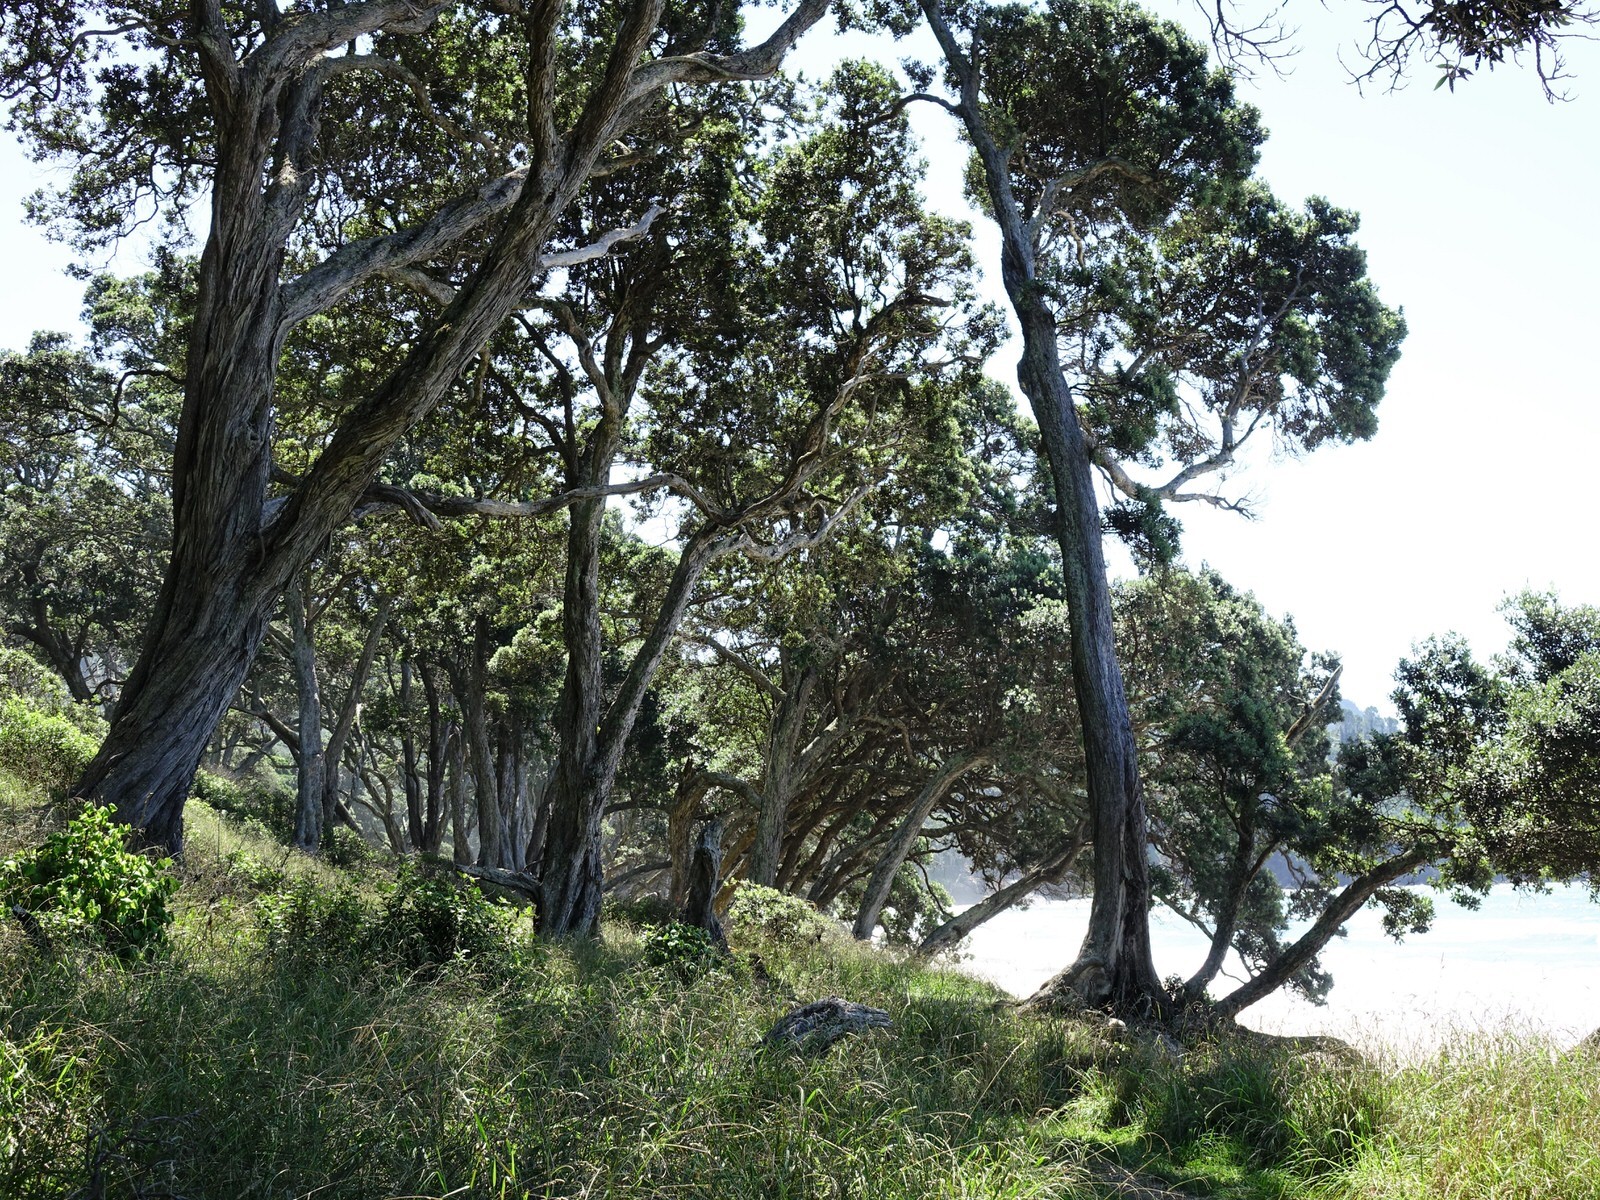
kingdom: Plantae
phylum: Tracheophyta
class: Magnoliopsida
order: Myrtales
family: Myrtaceae
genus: Metrosideros
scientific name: Metrosideros excelsa
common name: New zealand christmastree
